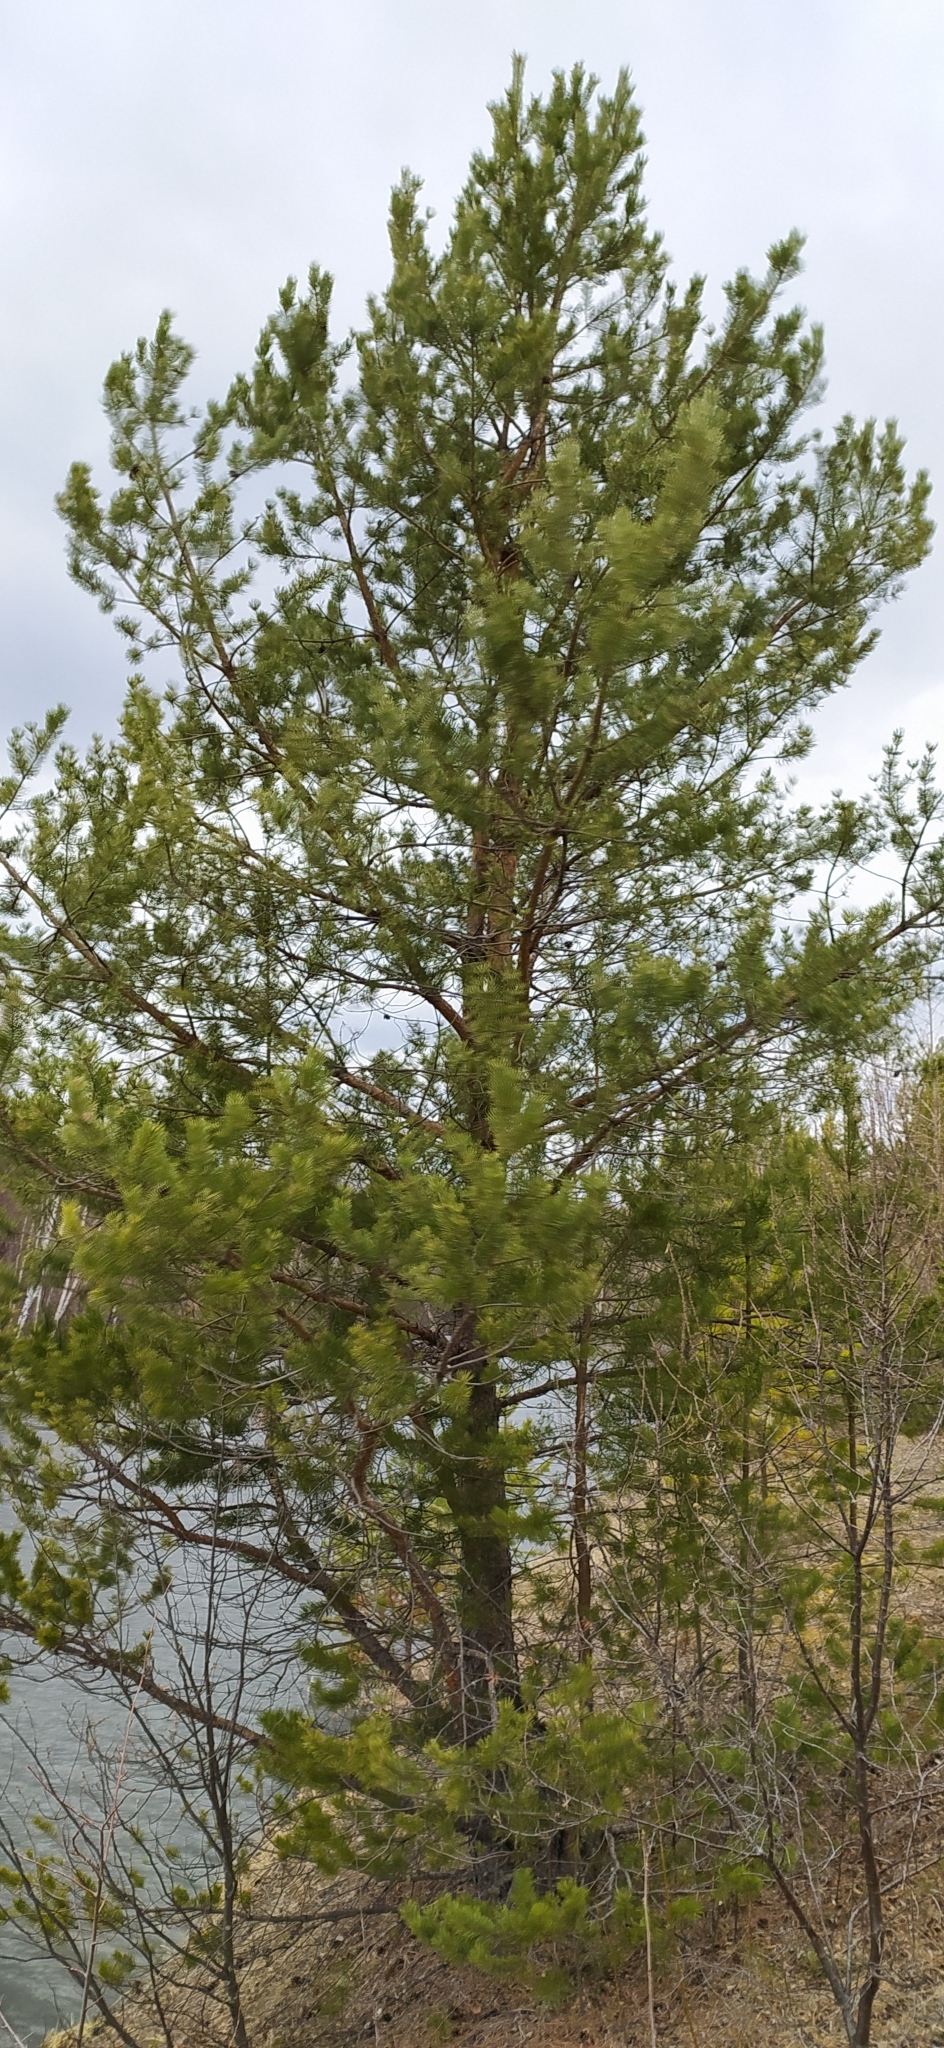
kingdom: Plantae
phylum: Tracheophyta
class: Pinopsida
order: Pinales
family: Pinaceae
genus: Pinus
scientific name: Pinus sylvestris
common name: Scots pine
